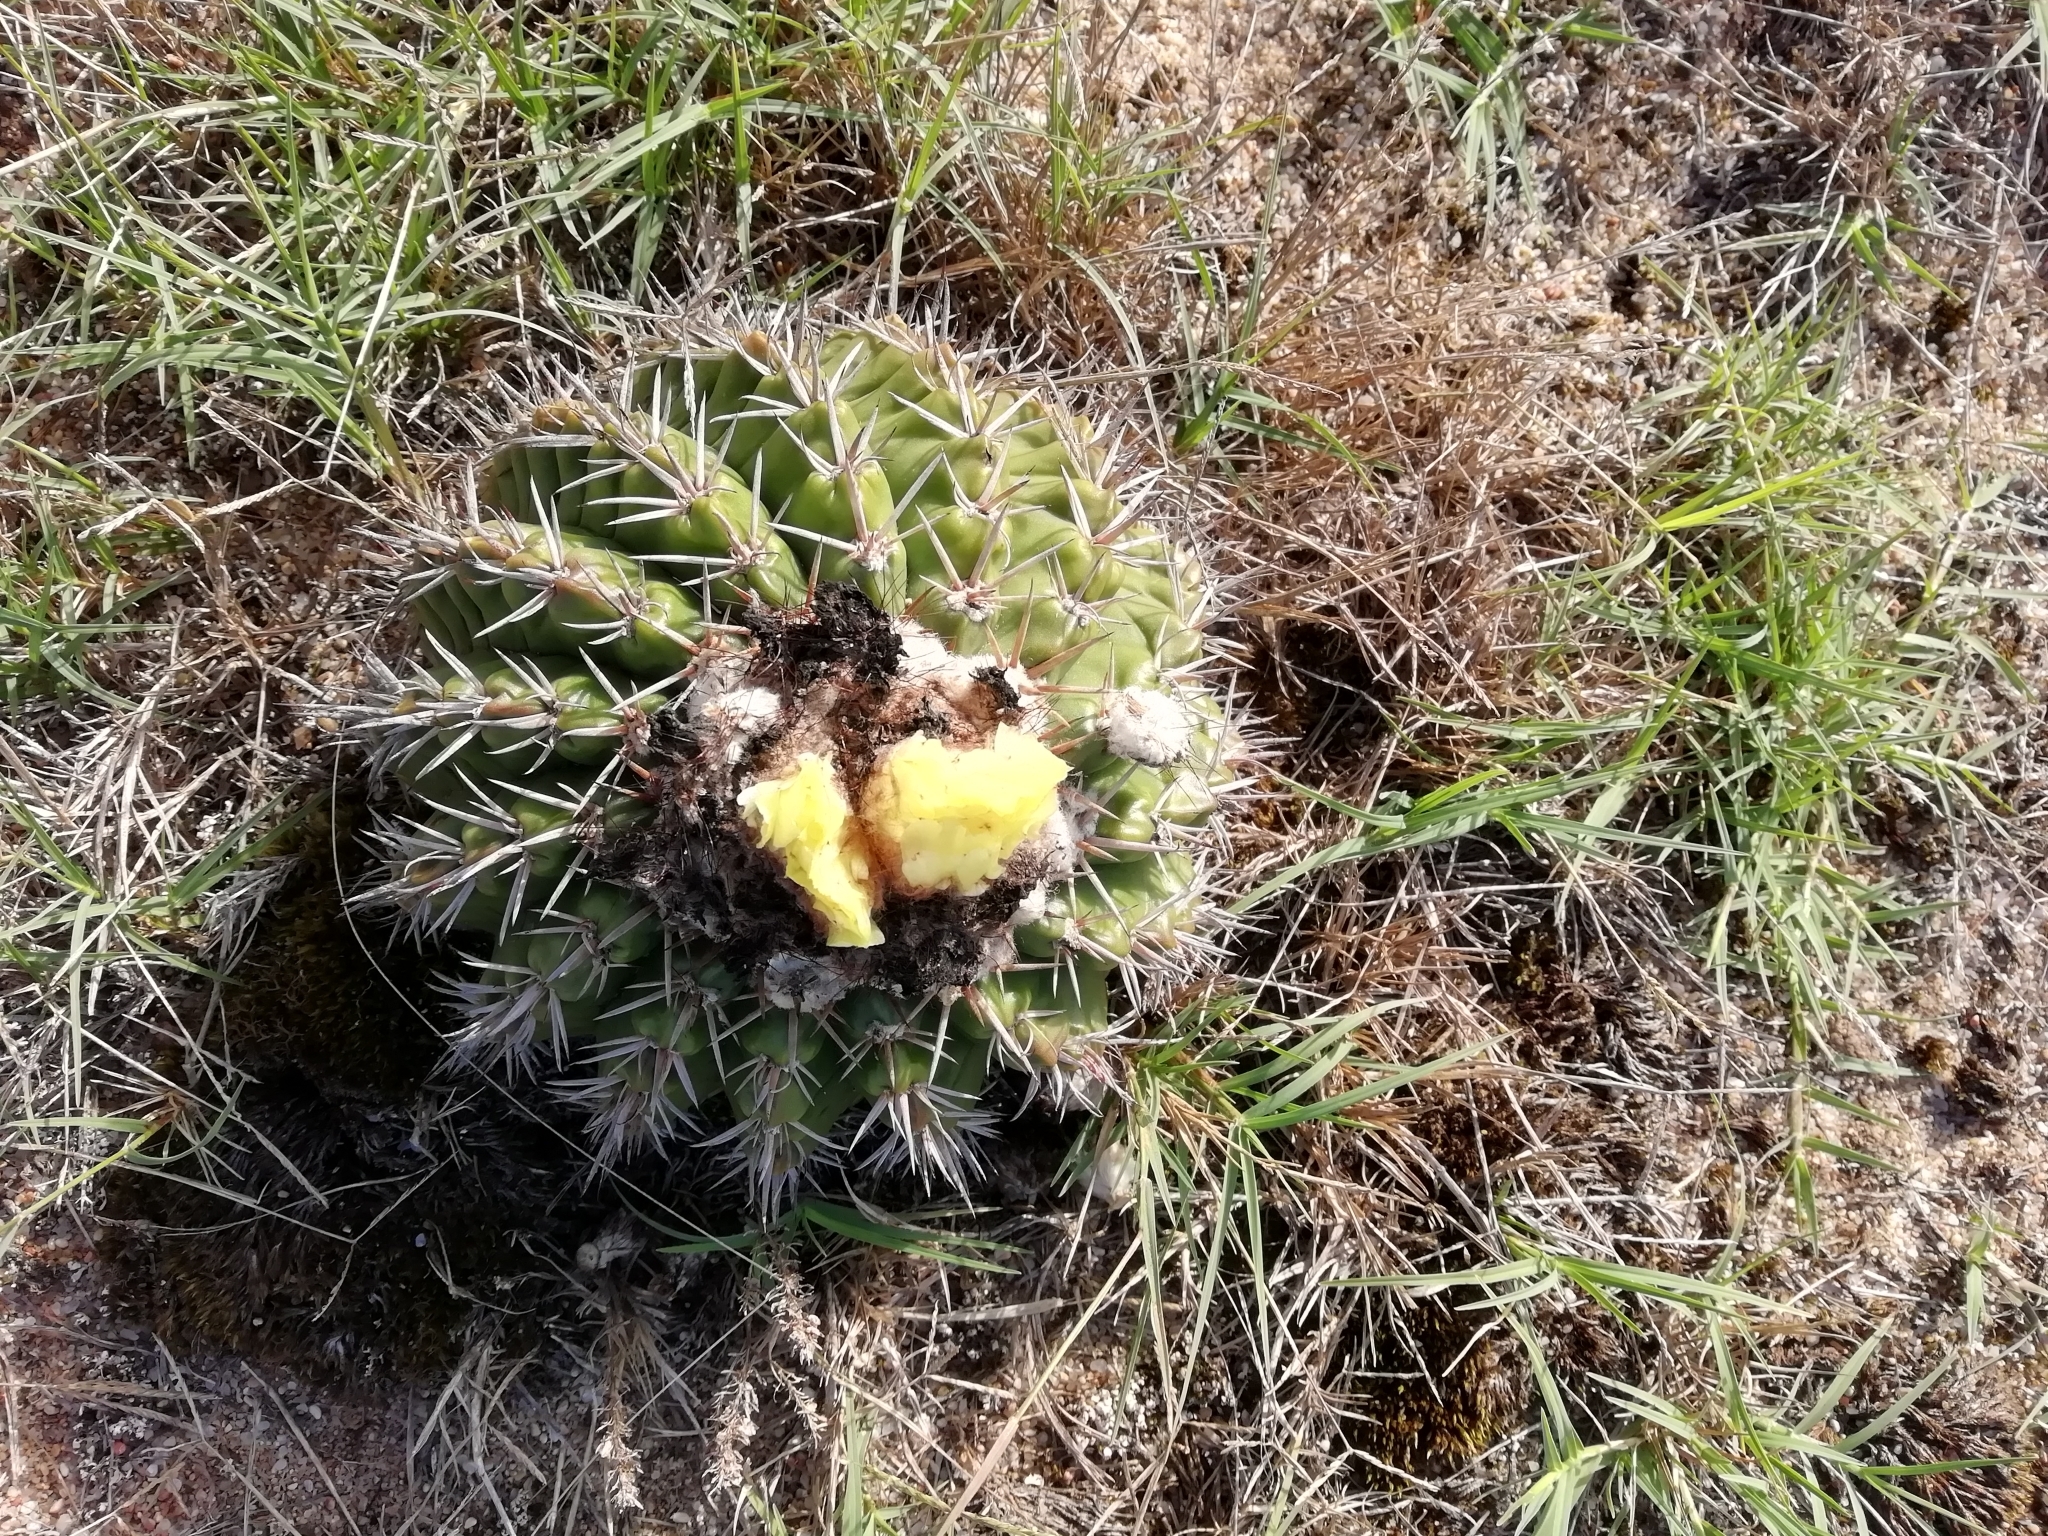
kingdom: Plantae
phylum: Tracheophyta
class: Magnoliopsida
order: Caryophyllales
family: Cactaceae
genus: Parodia
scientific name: Parodia erinacea
